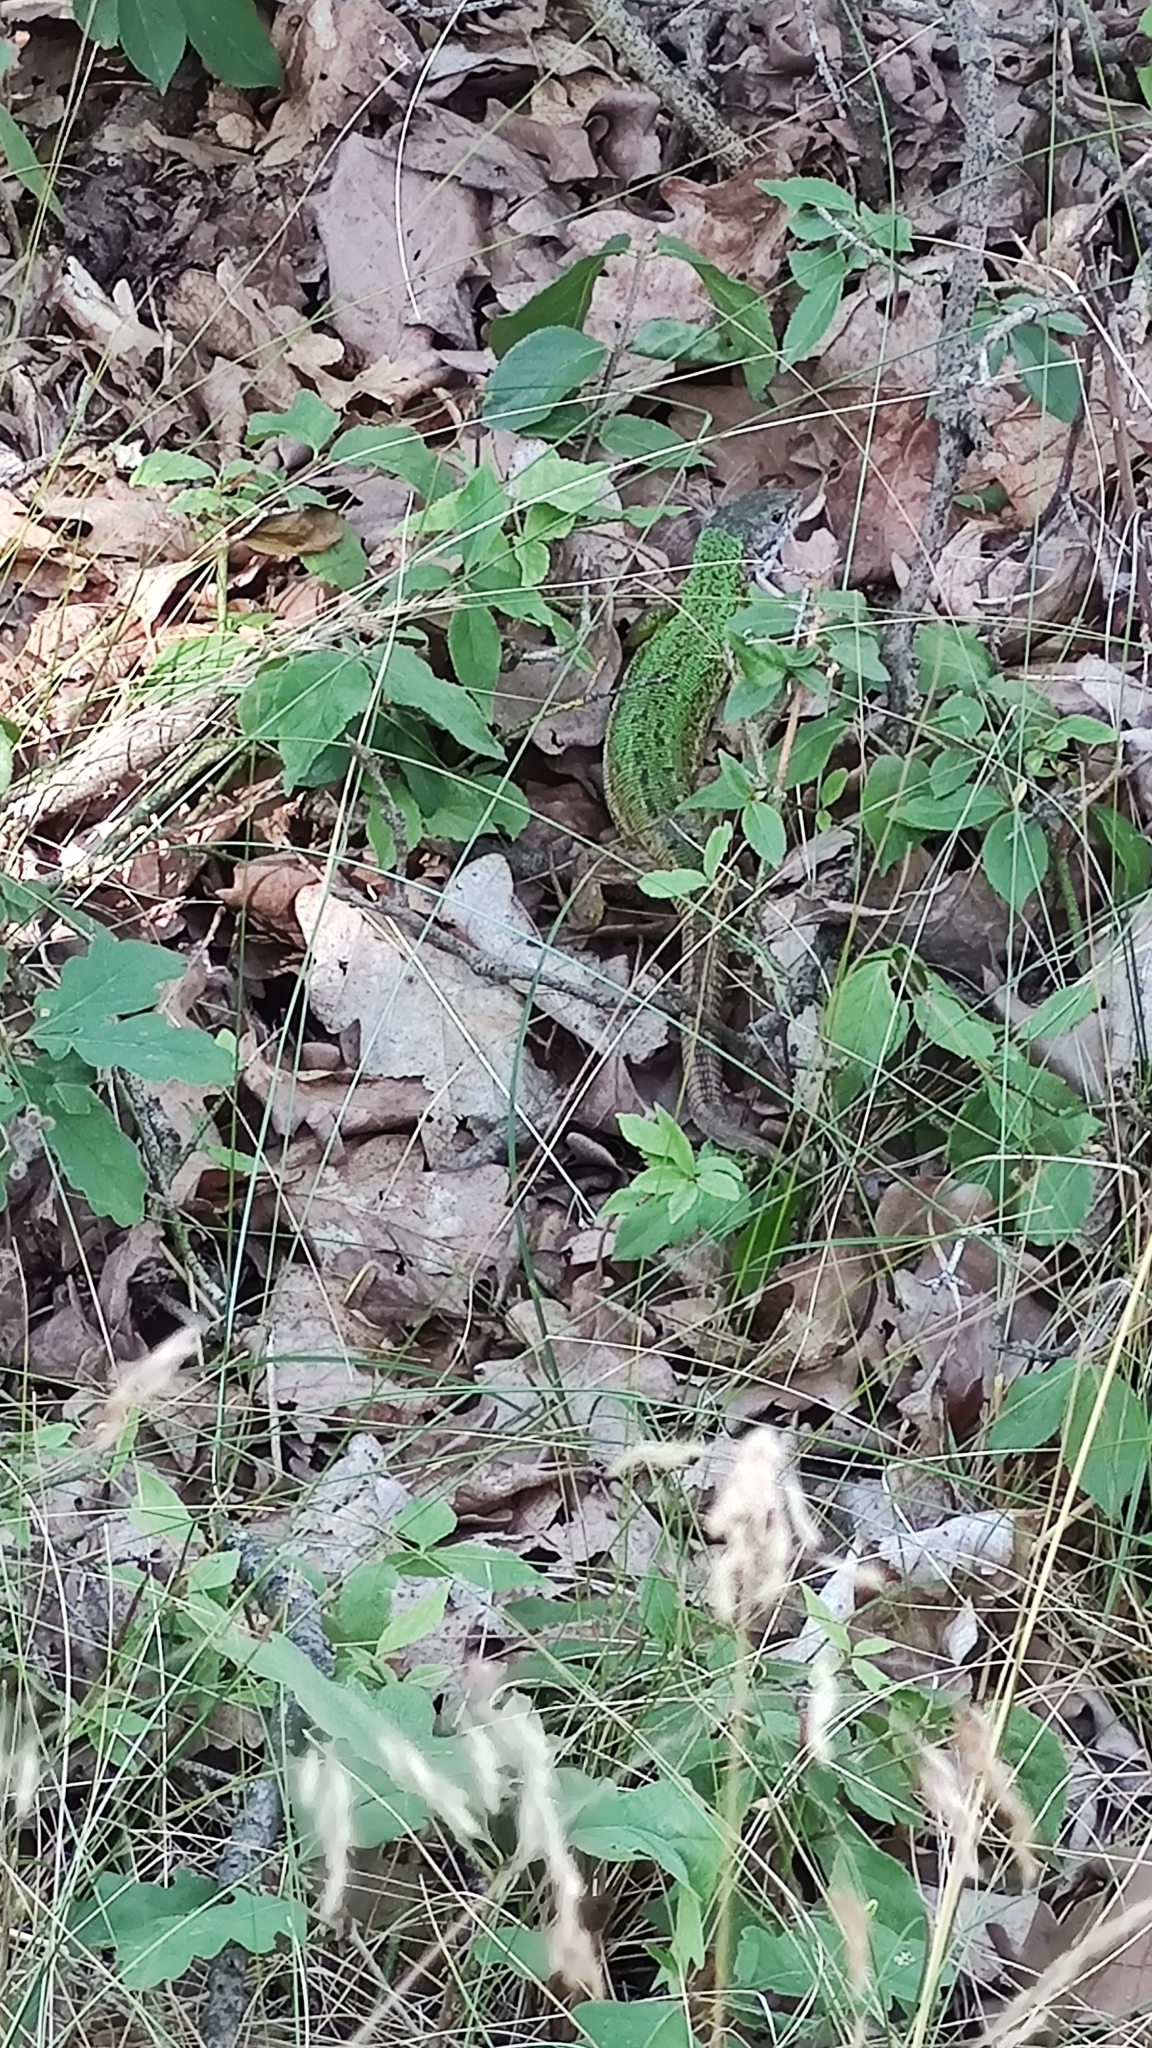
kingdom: Animalia
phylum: Chordata
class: Squamata
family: Lacertidae
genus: Lacerta
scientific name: Lacerta viridis
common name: European green lizard
